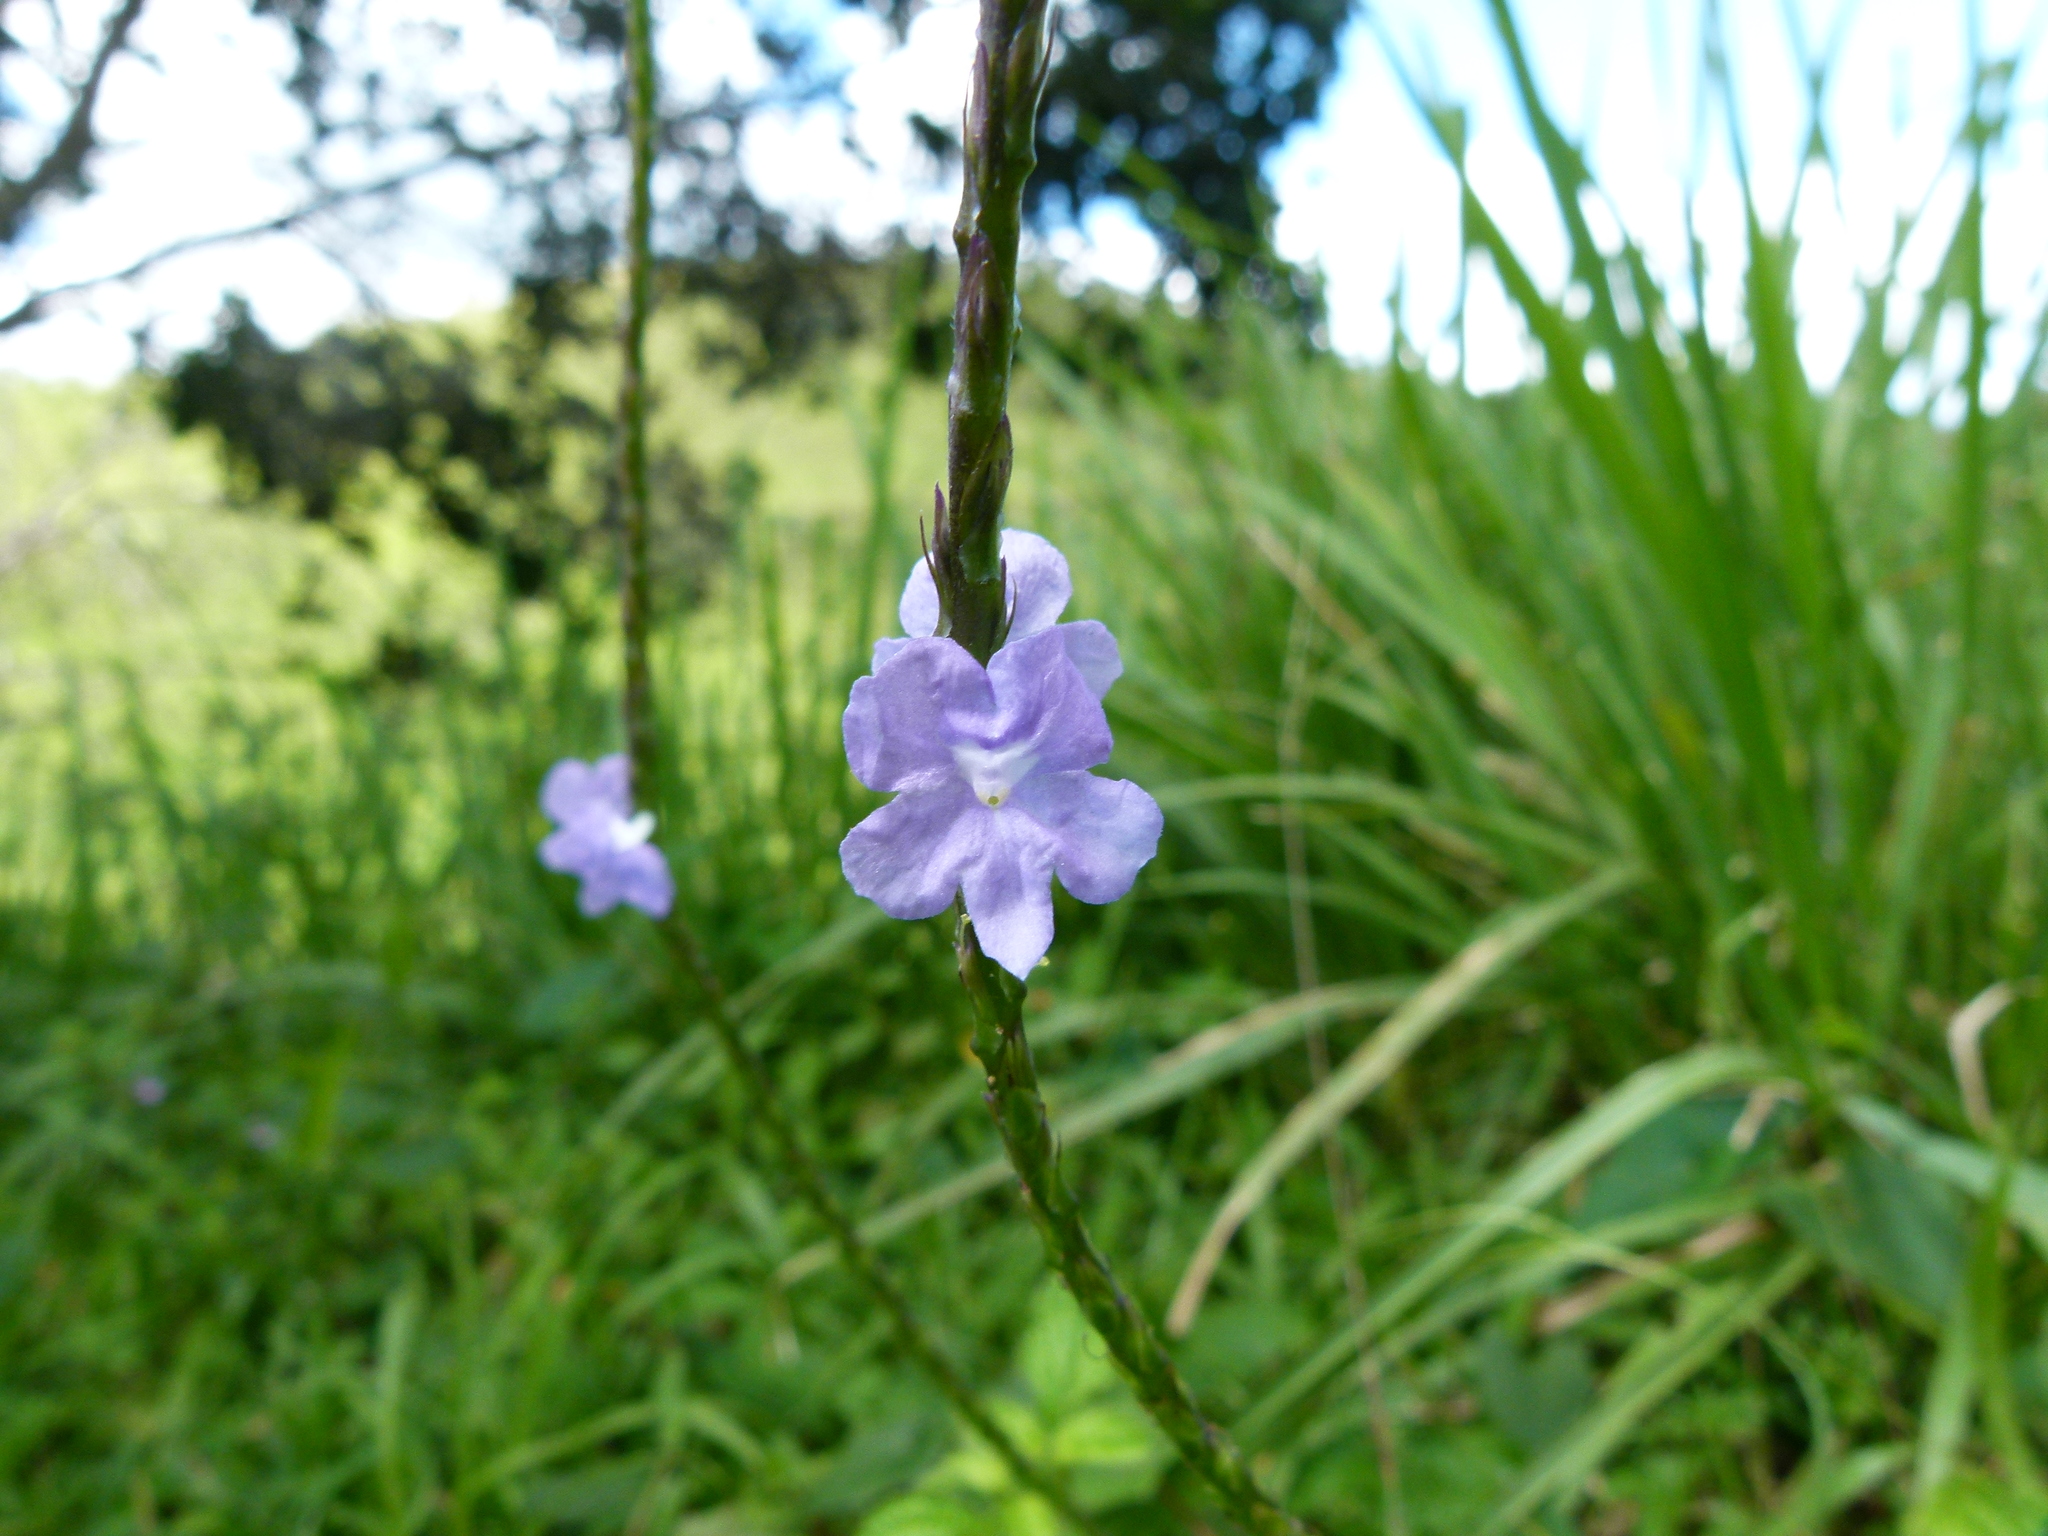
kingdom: Plantae
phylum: Tracheophyta
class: Magnoliopsida
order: Lamiales
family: Verbenaceae
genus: Stachytarpheta
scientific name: Stachytarpheta jamaicensis
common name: Light-blue snakeweed
